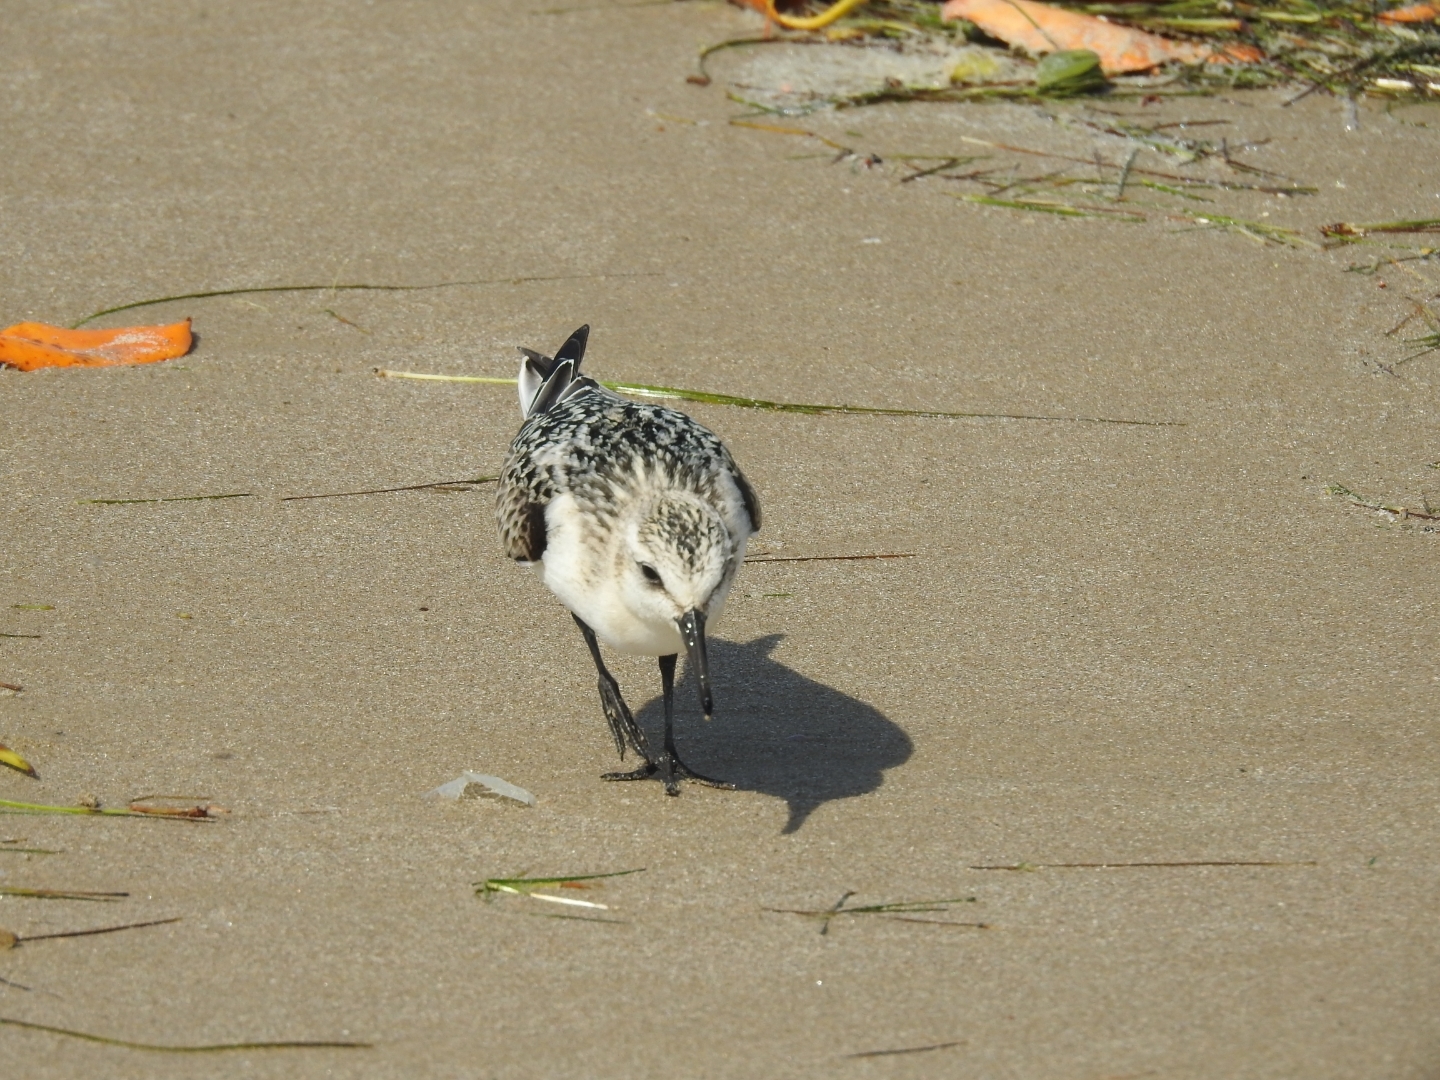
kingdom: Animalia
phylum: Chordata
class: Aves
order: Charadriiformes
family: Scolopacidae
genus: Calidris
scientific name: Calidris alba
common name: Sanderling
